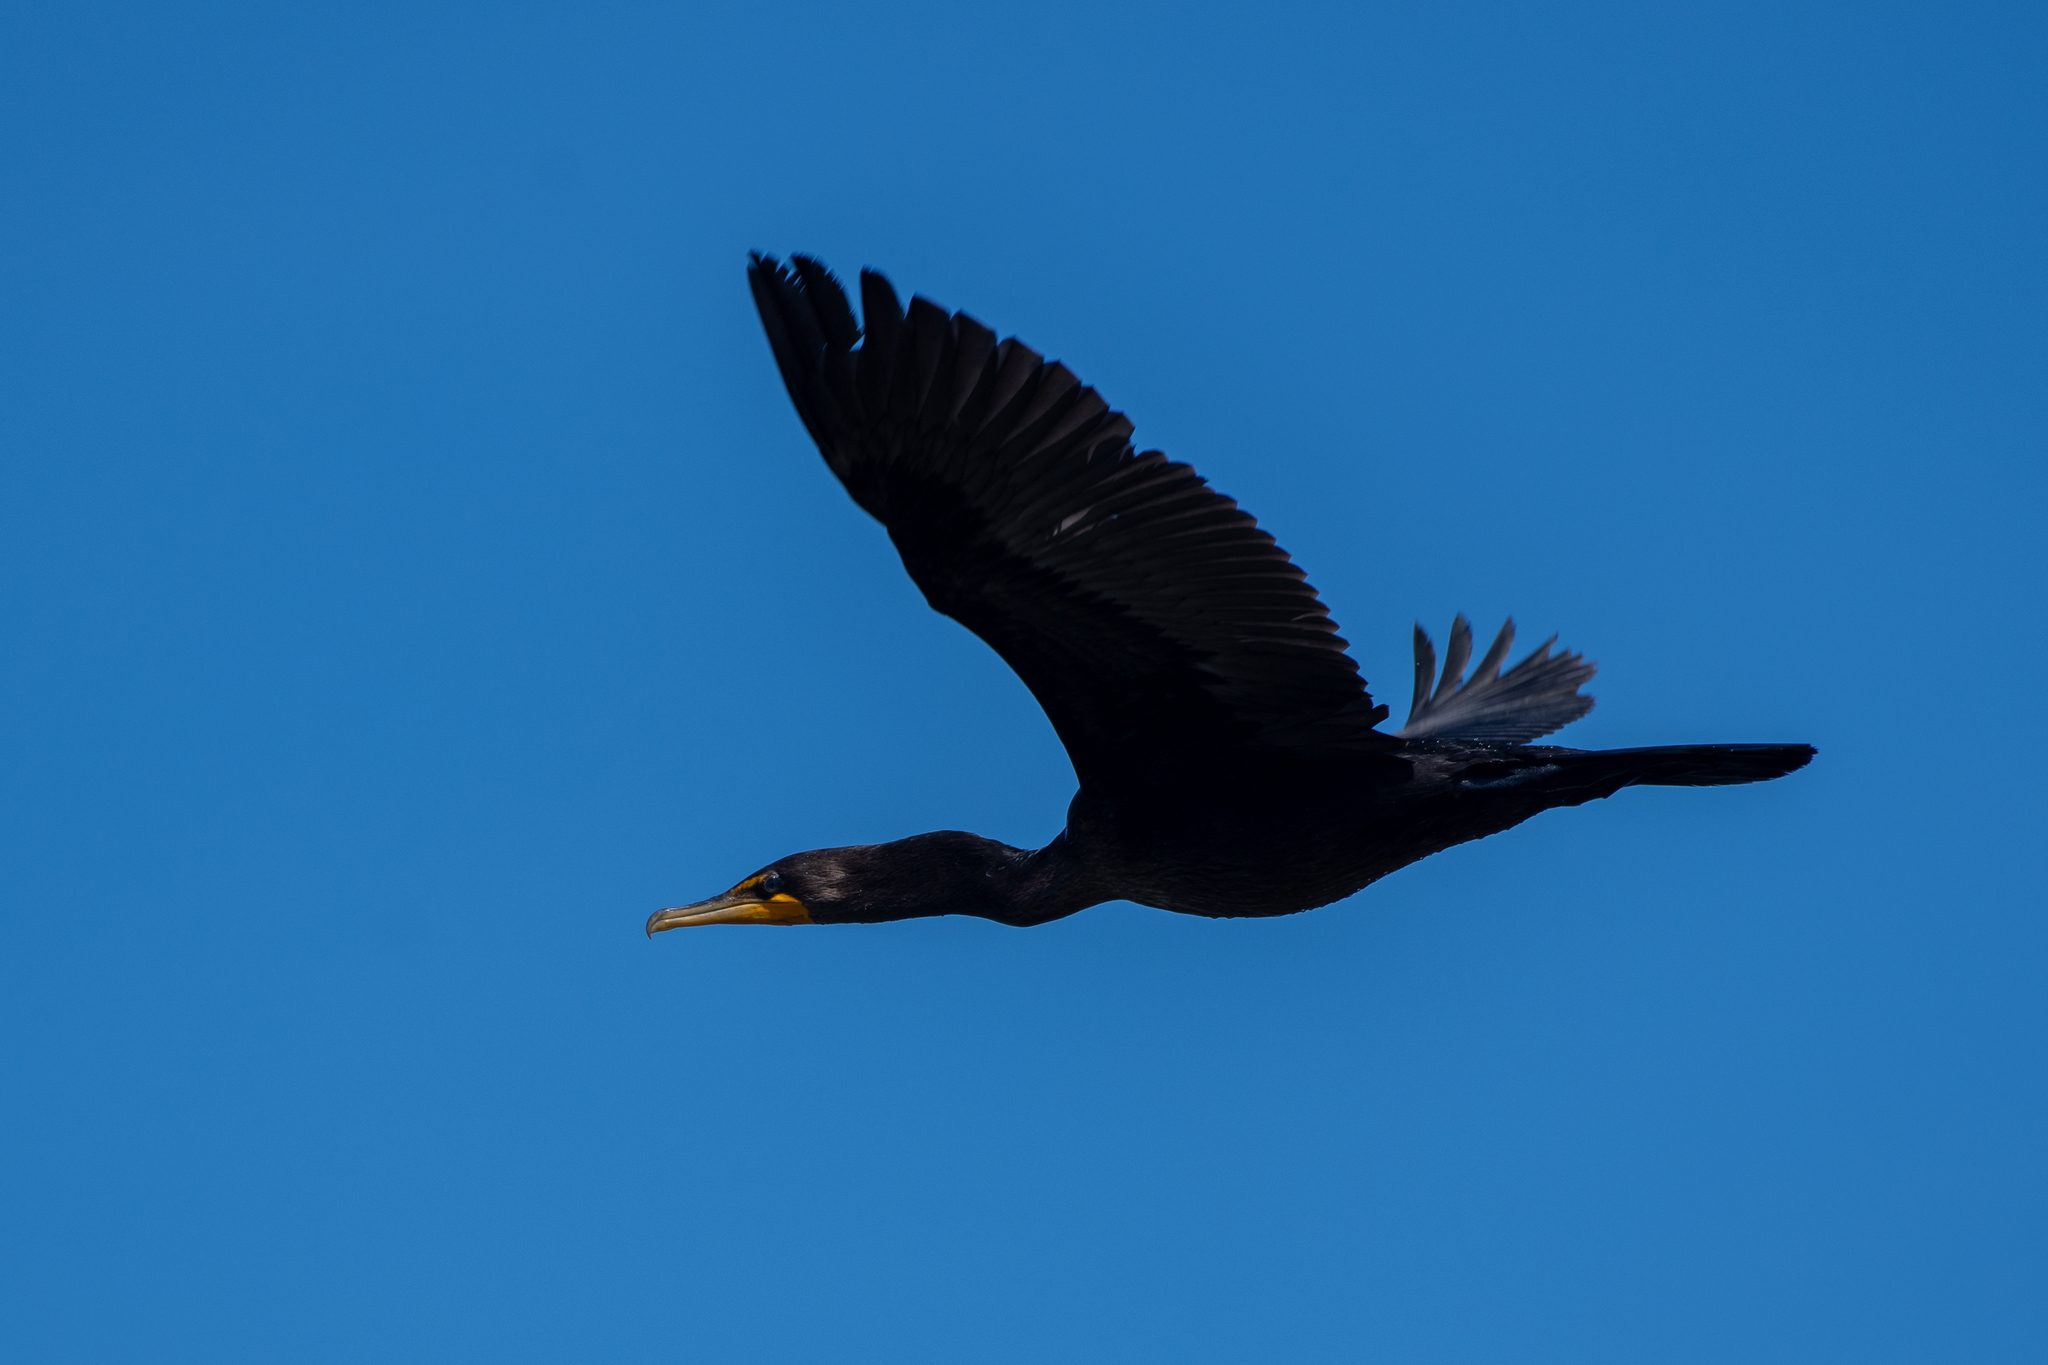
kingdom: Animalia
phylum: Chordata
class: Aves
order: Suliformes
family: Phalacrocoracidae
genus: Phalacrocorax
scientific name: Phalacrocorax auritus
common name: Double-crested cormorant
